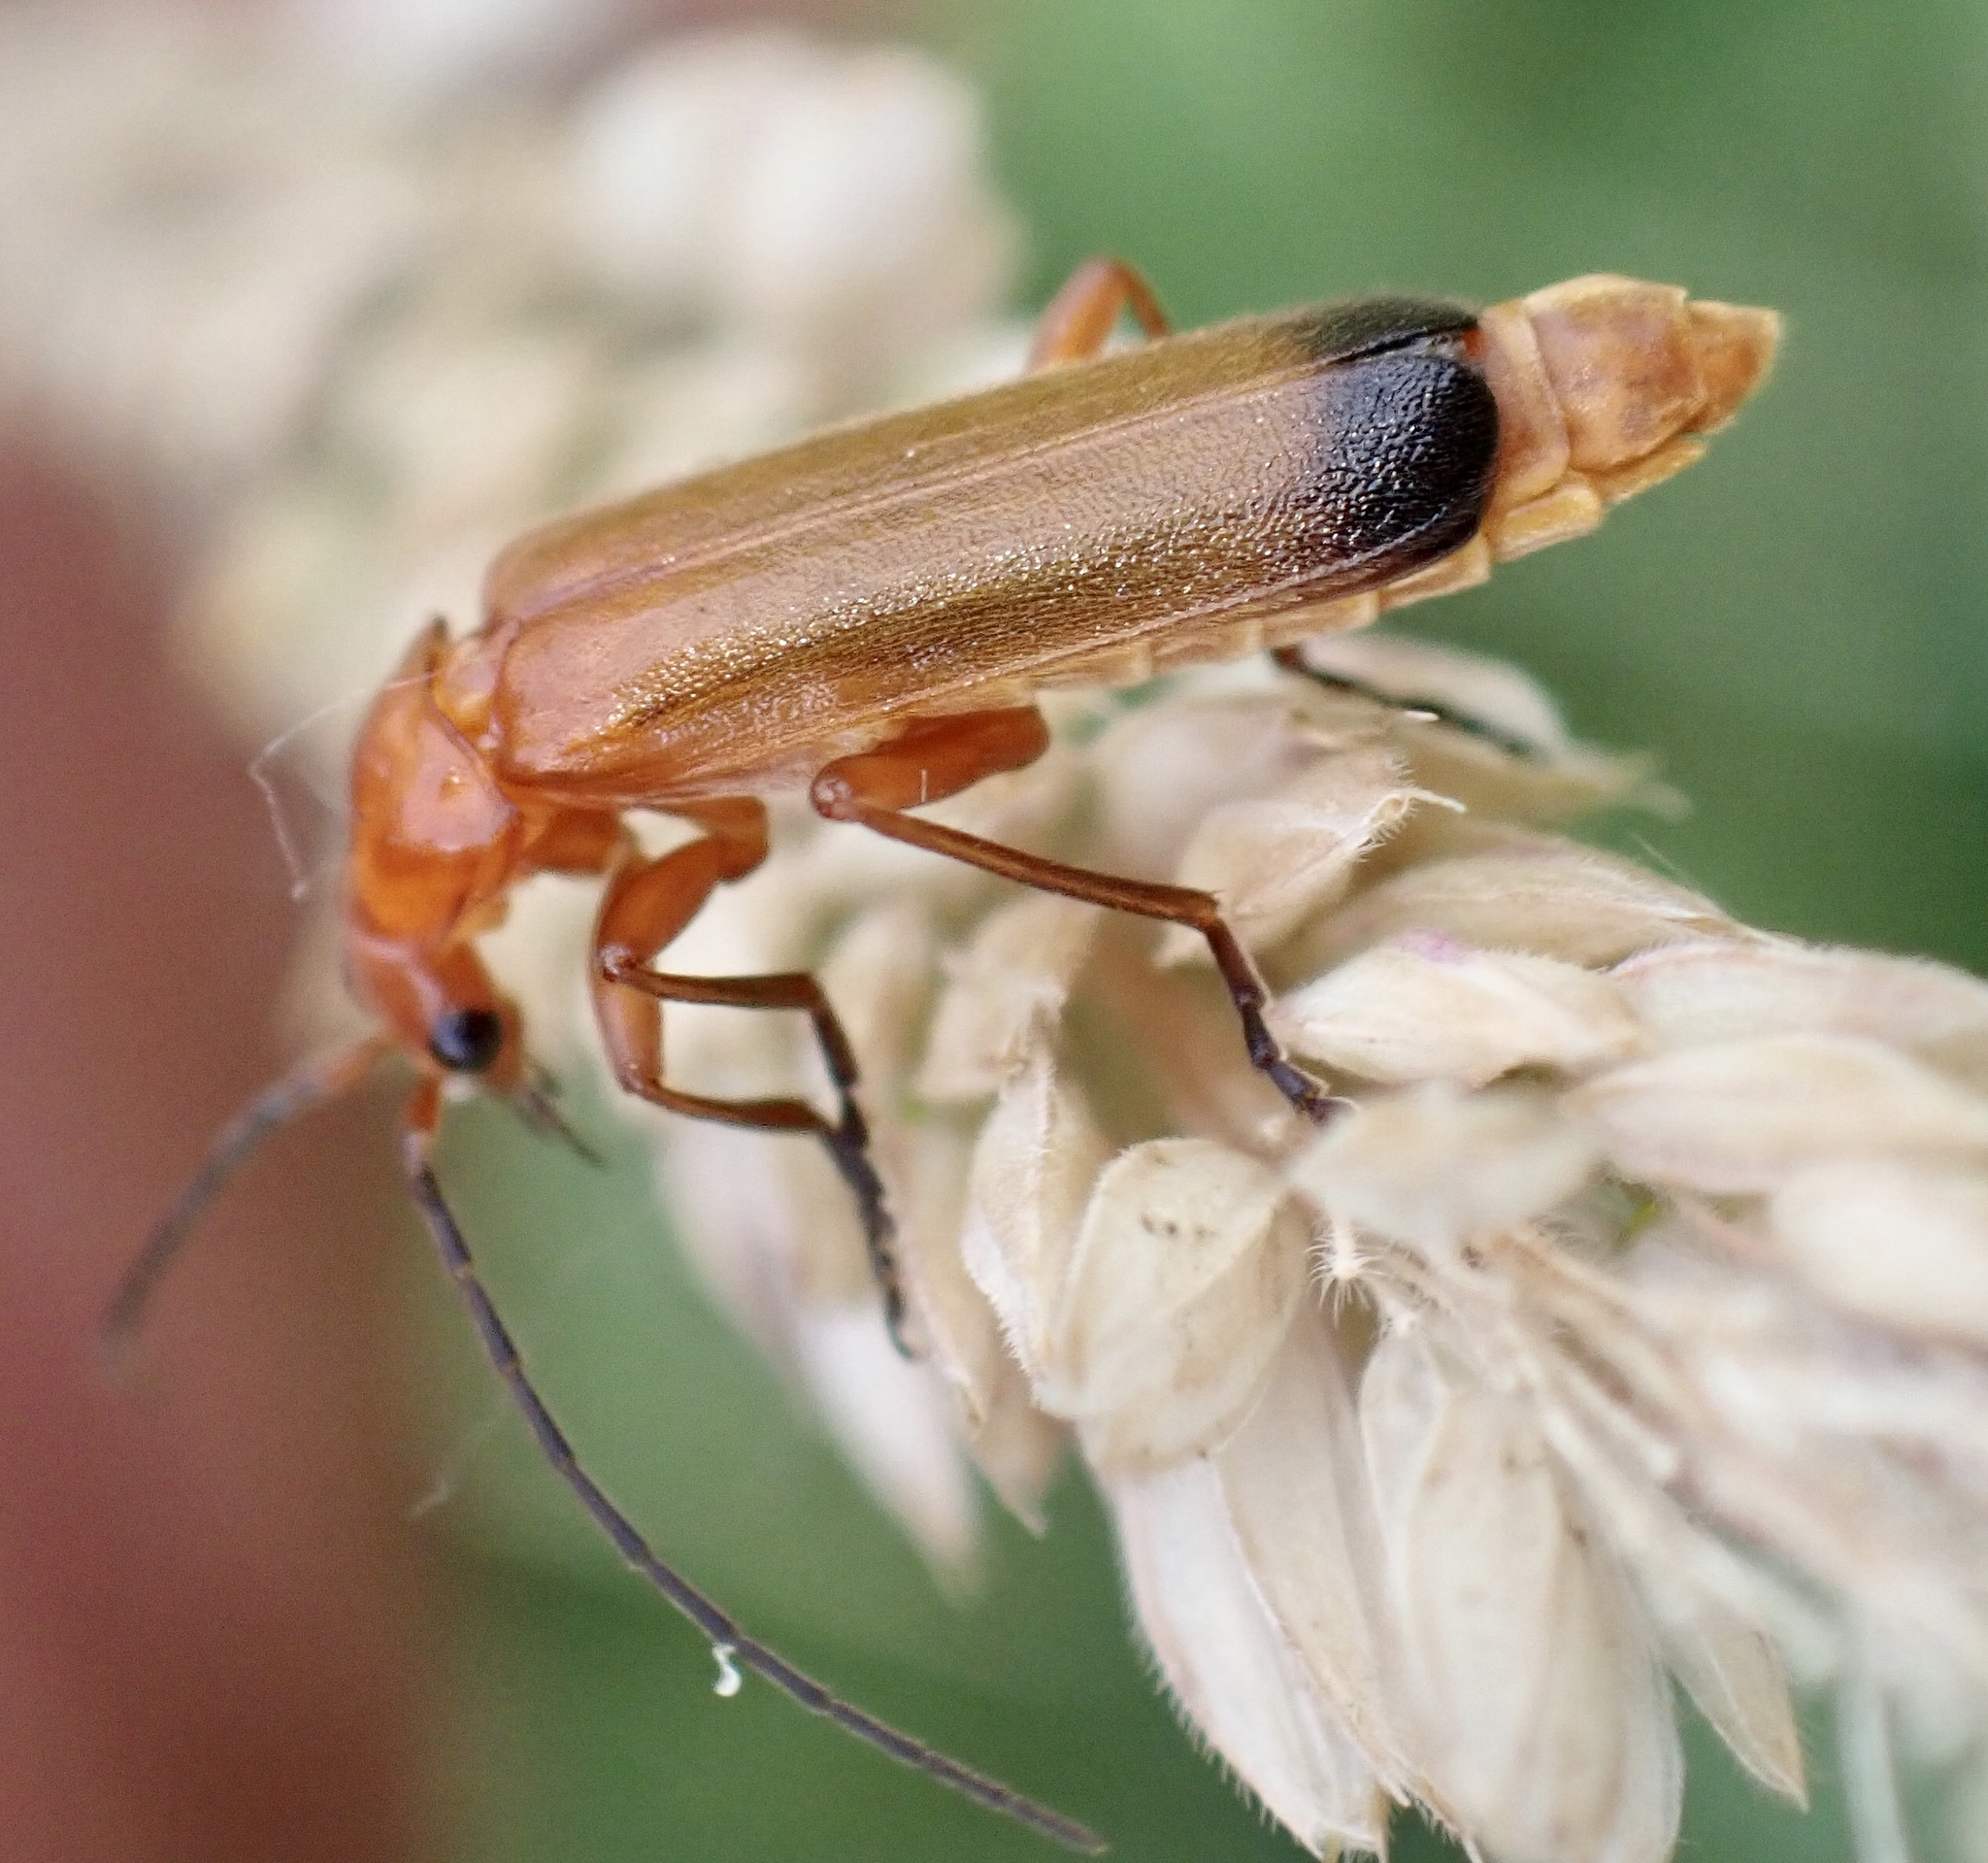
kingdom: Animalia
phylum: Arthropoda
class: Insecta
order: Coleoptera
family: Cantharidae
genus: Rhagonycha
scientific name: Rhagonycha fulva
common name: Common red soldier beetle
